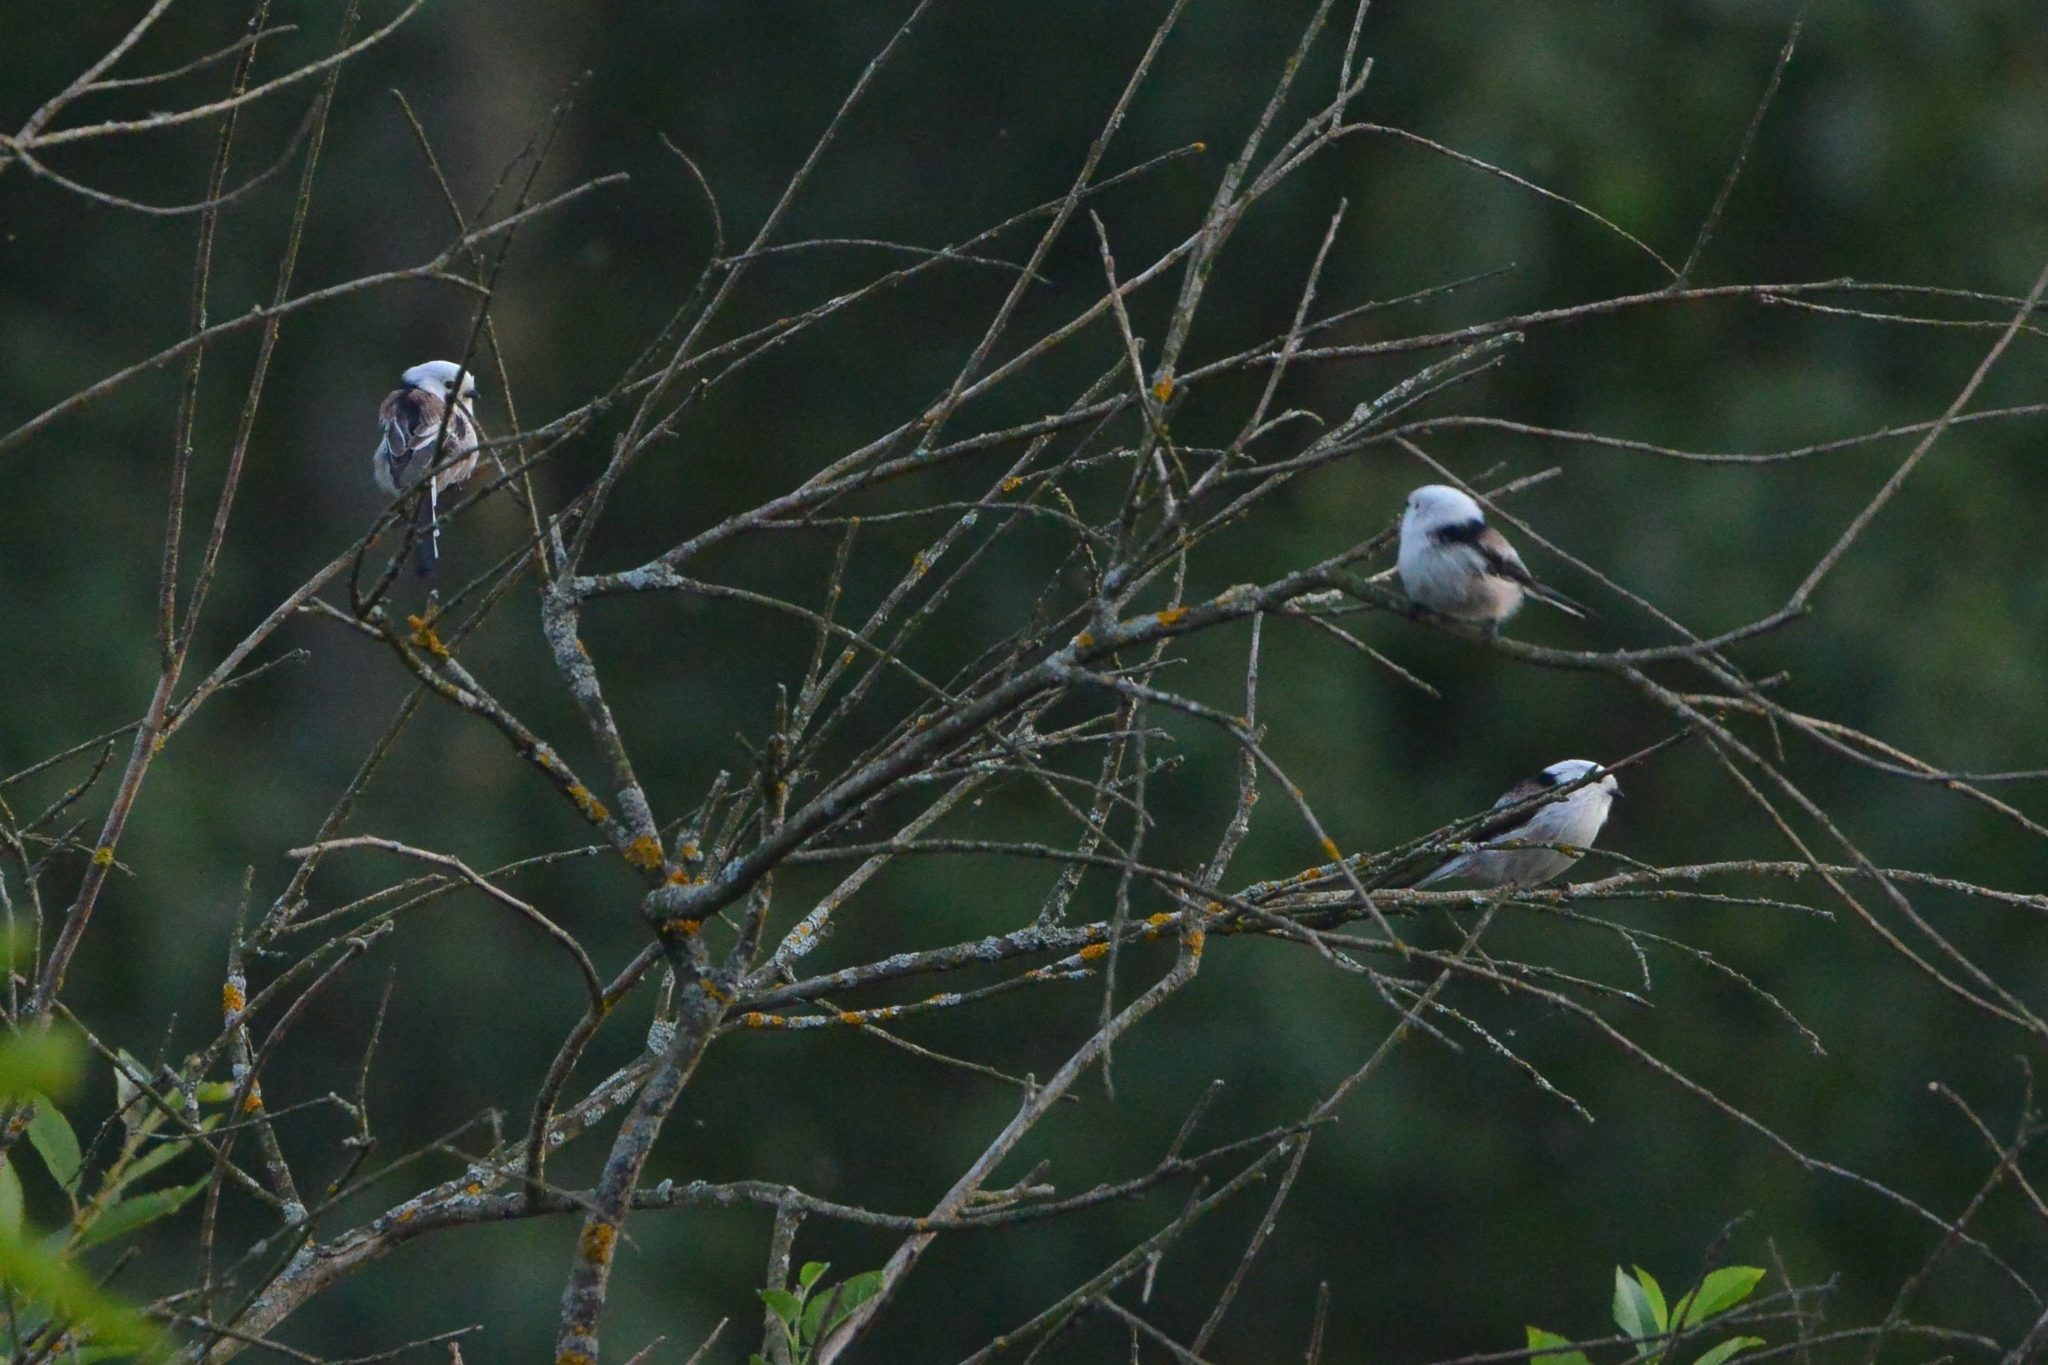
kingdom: Animalia
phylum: Chordata
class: Aves
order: Passeriformes
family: Aegithalidae
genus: Aegithalos
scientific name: Aegithalos caudatus
